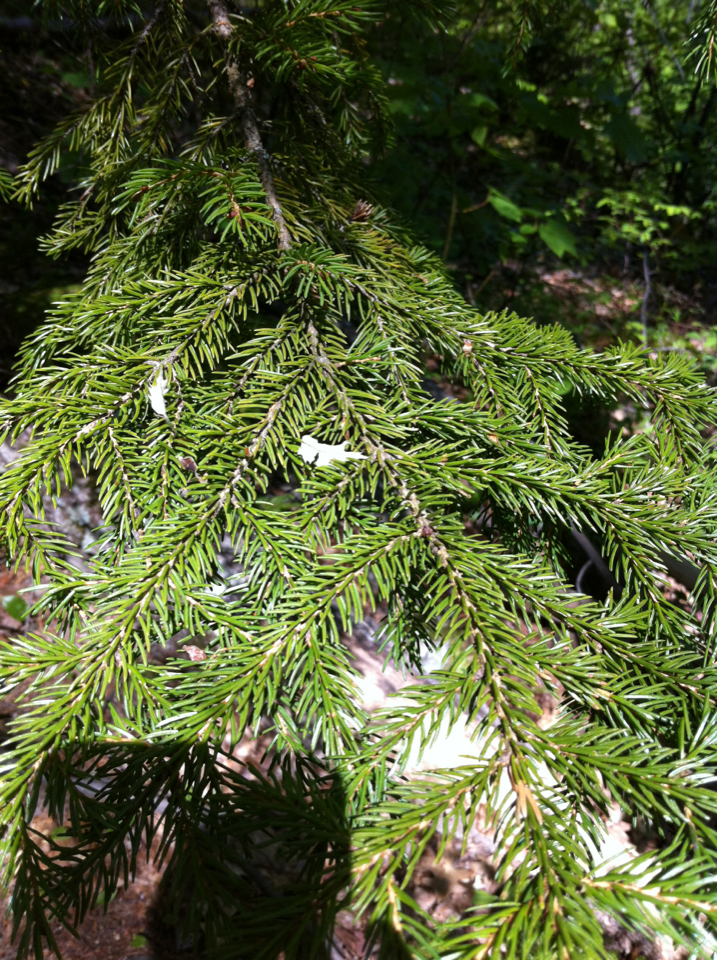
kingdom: Plantae
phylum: Tracheophyta
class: Pinopsida
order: Pinales
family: Pinaceae
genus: Picea
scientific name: Picea rubens
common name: Red spruce
